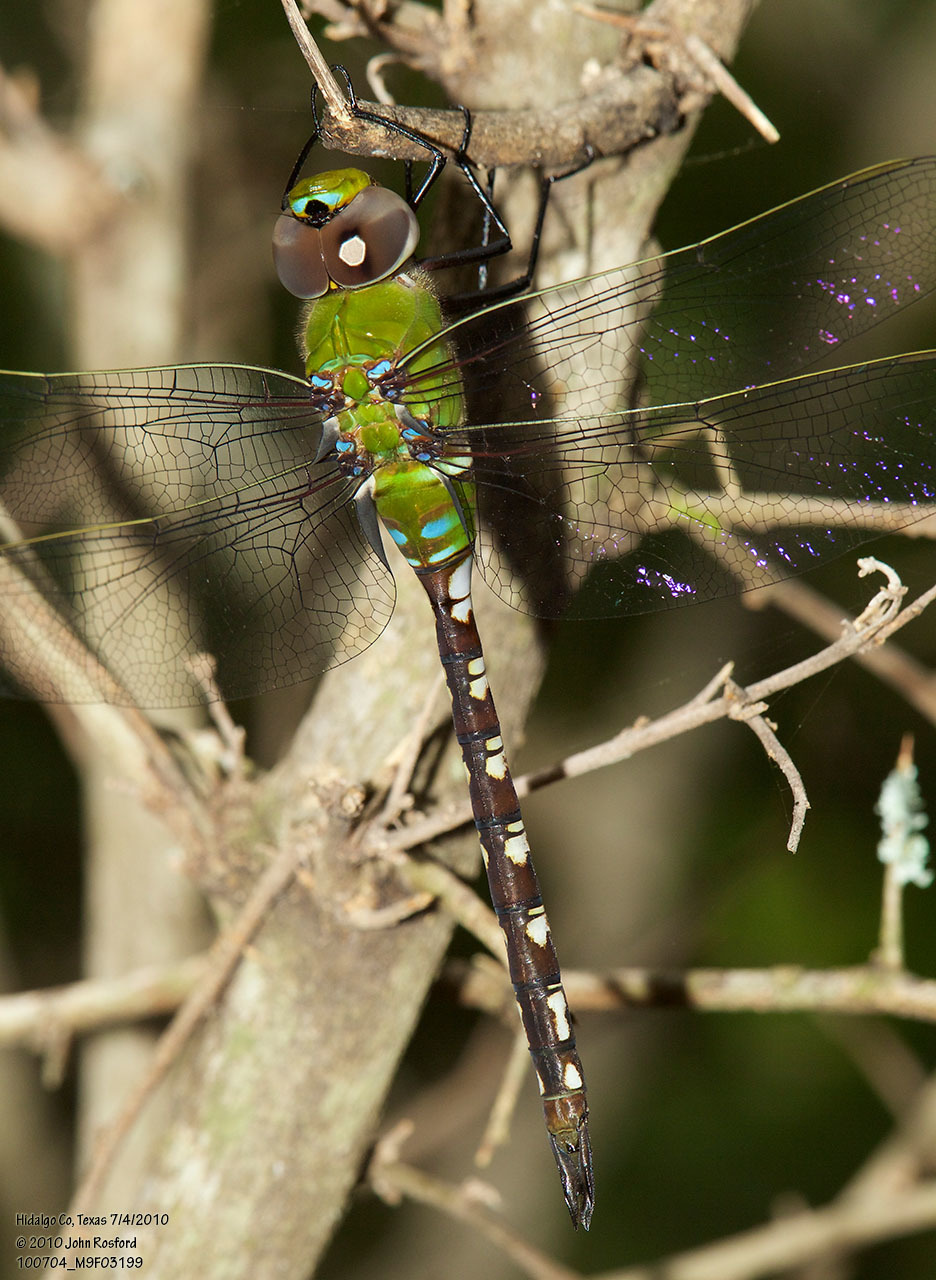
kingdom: Animalia
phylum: Arthropoda
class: Insecta
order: Odonata
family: Aeshnidae
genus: Anax
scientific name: Anax amazili
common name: Amazon darner
